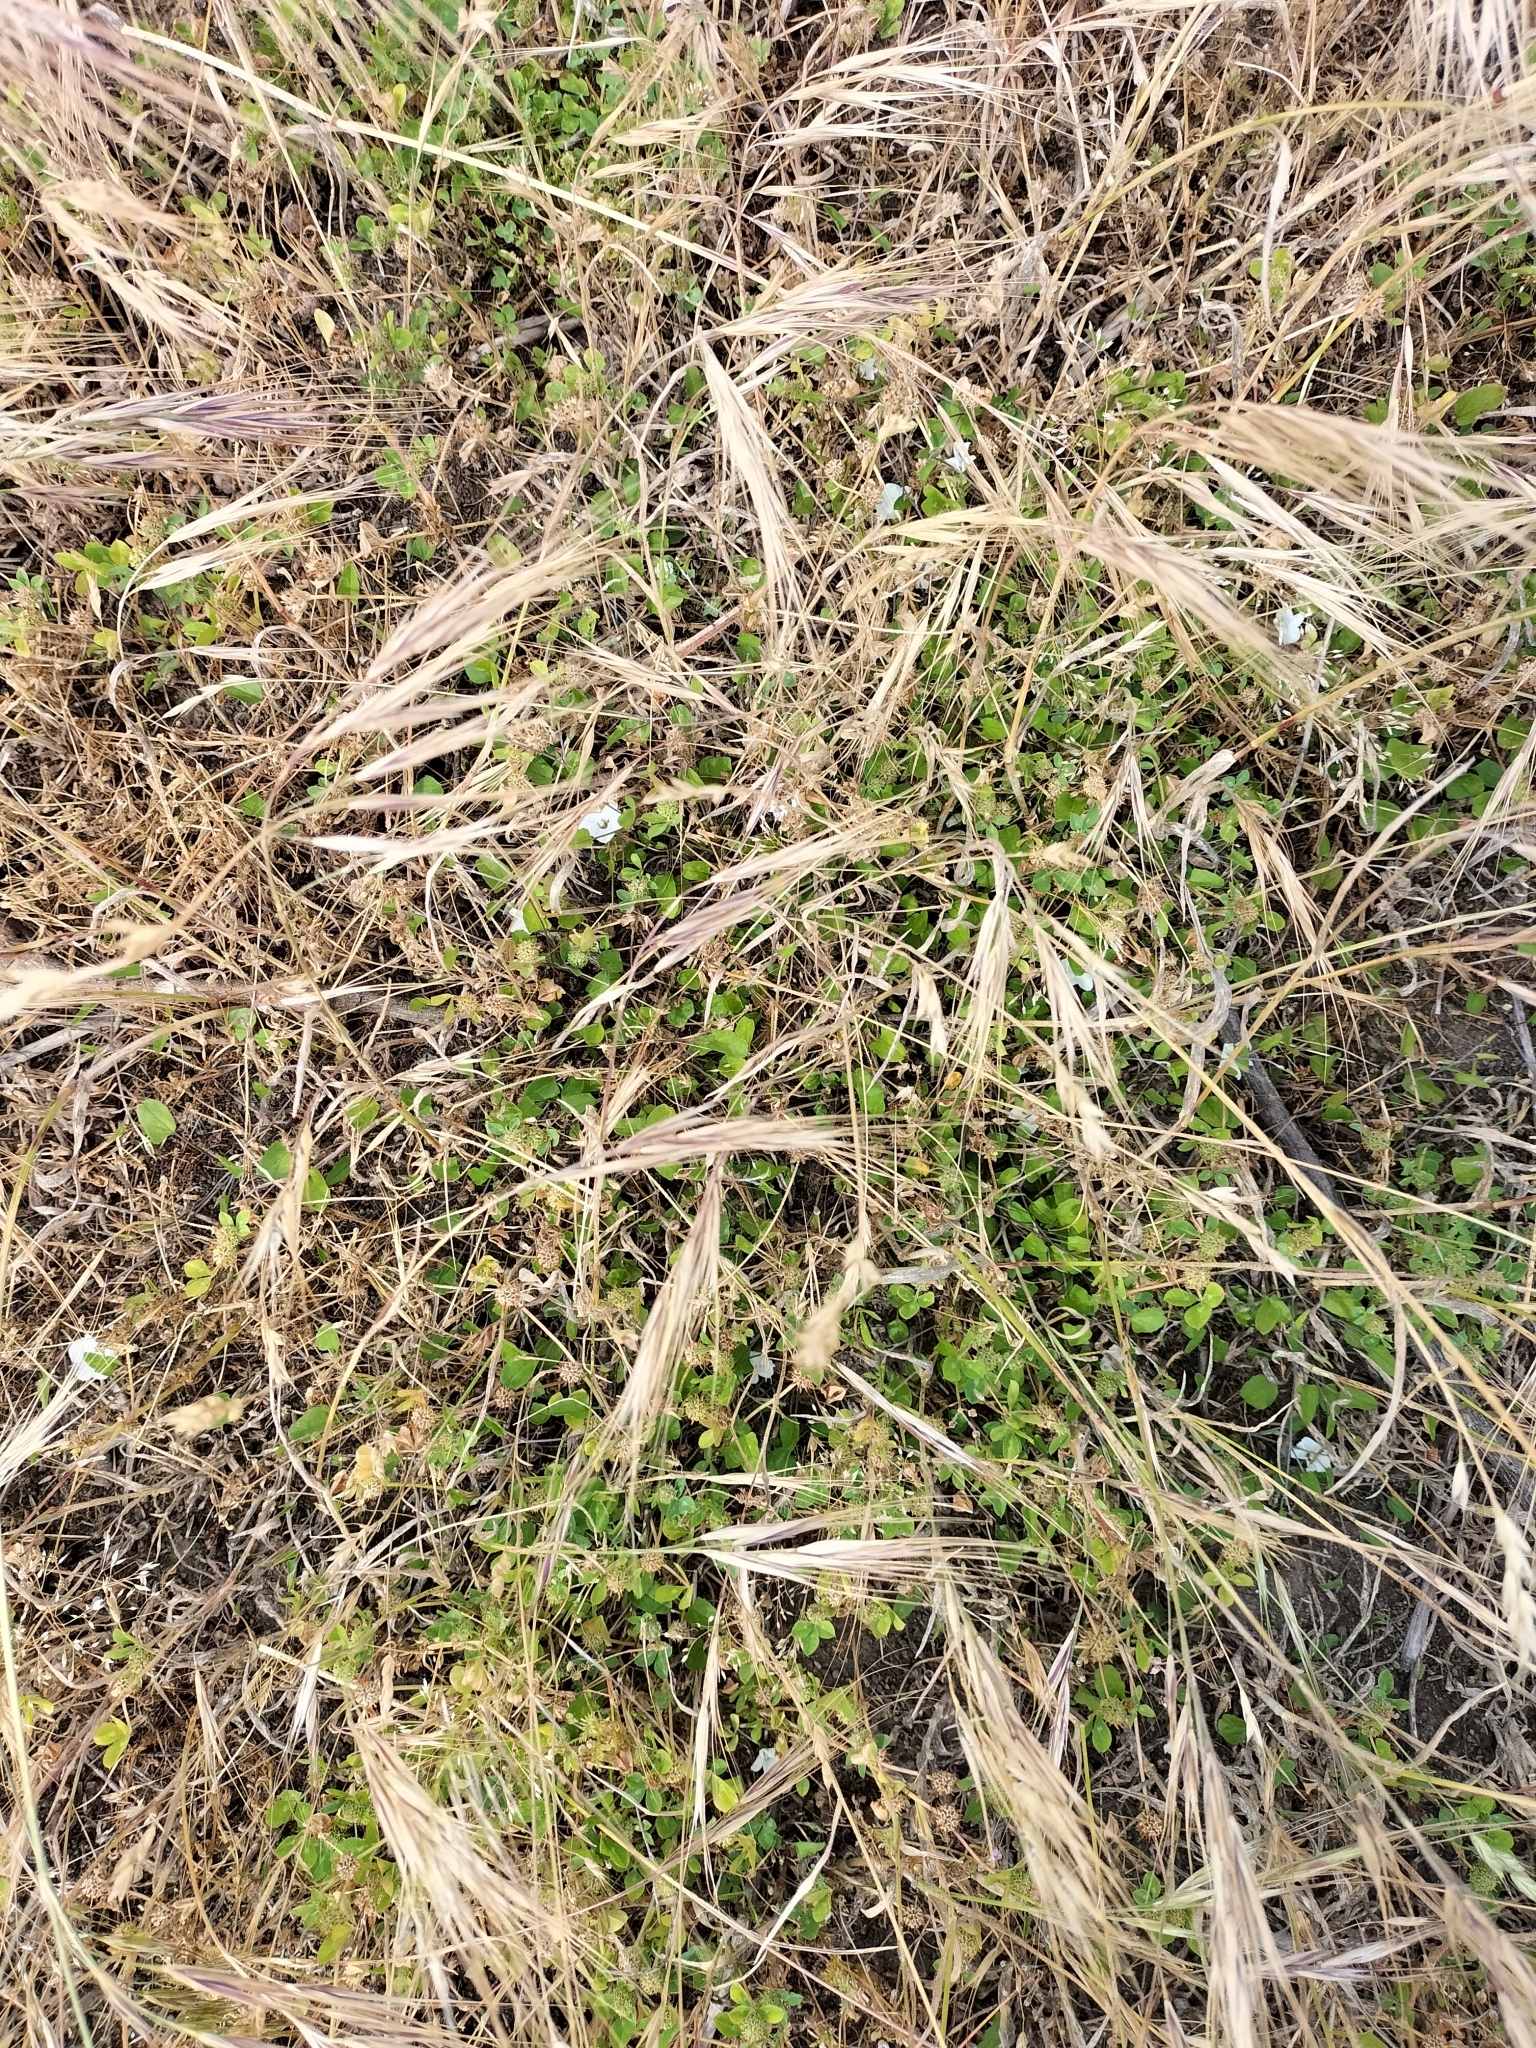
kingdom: Plantae
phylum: Tracheophyta
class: Magnoliopsida
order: Solanales
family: Convolvulaceae
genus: Convolvulus
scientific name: Convolvulus waitaha
